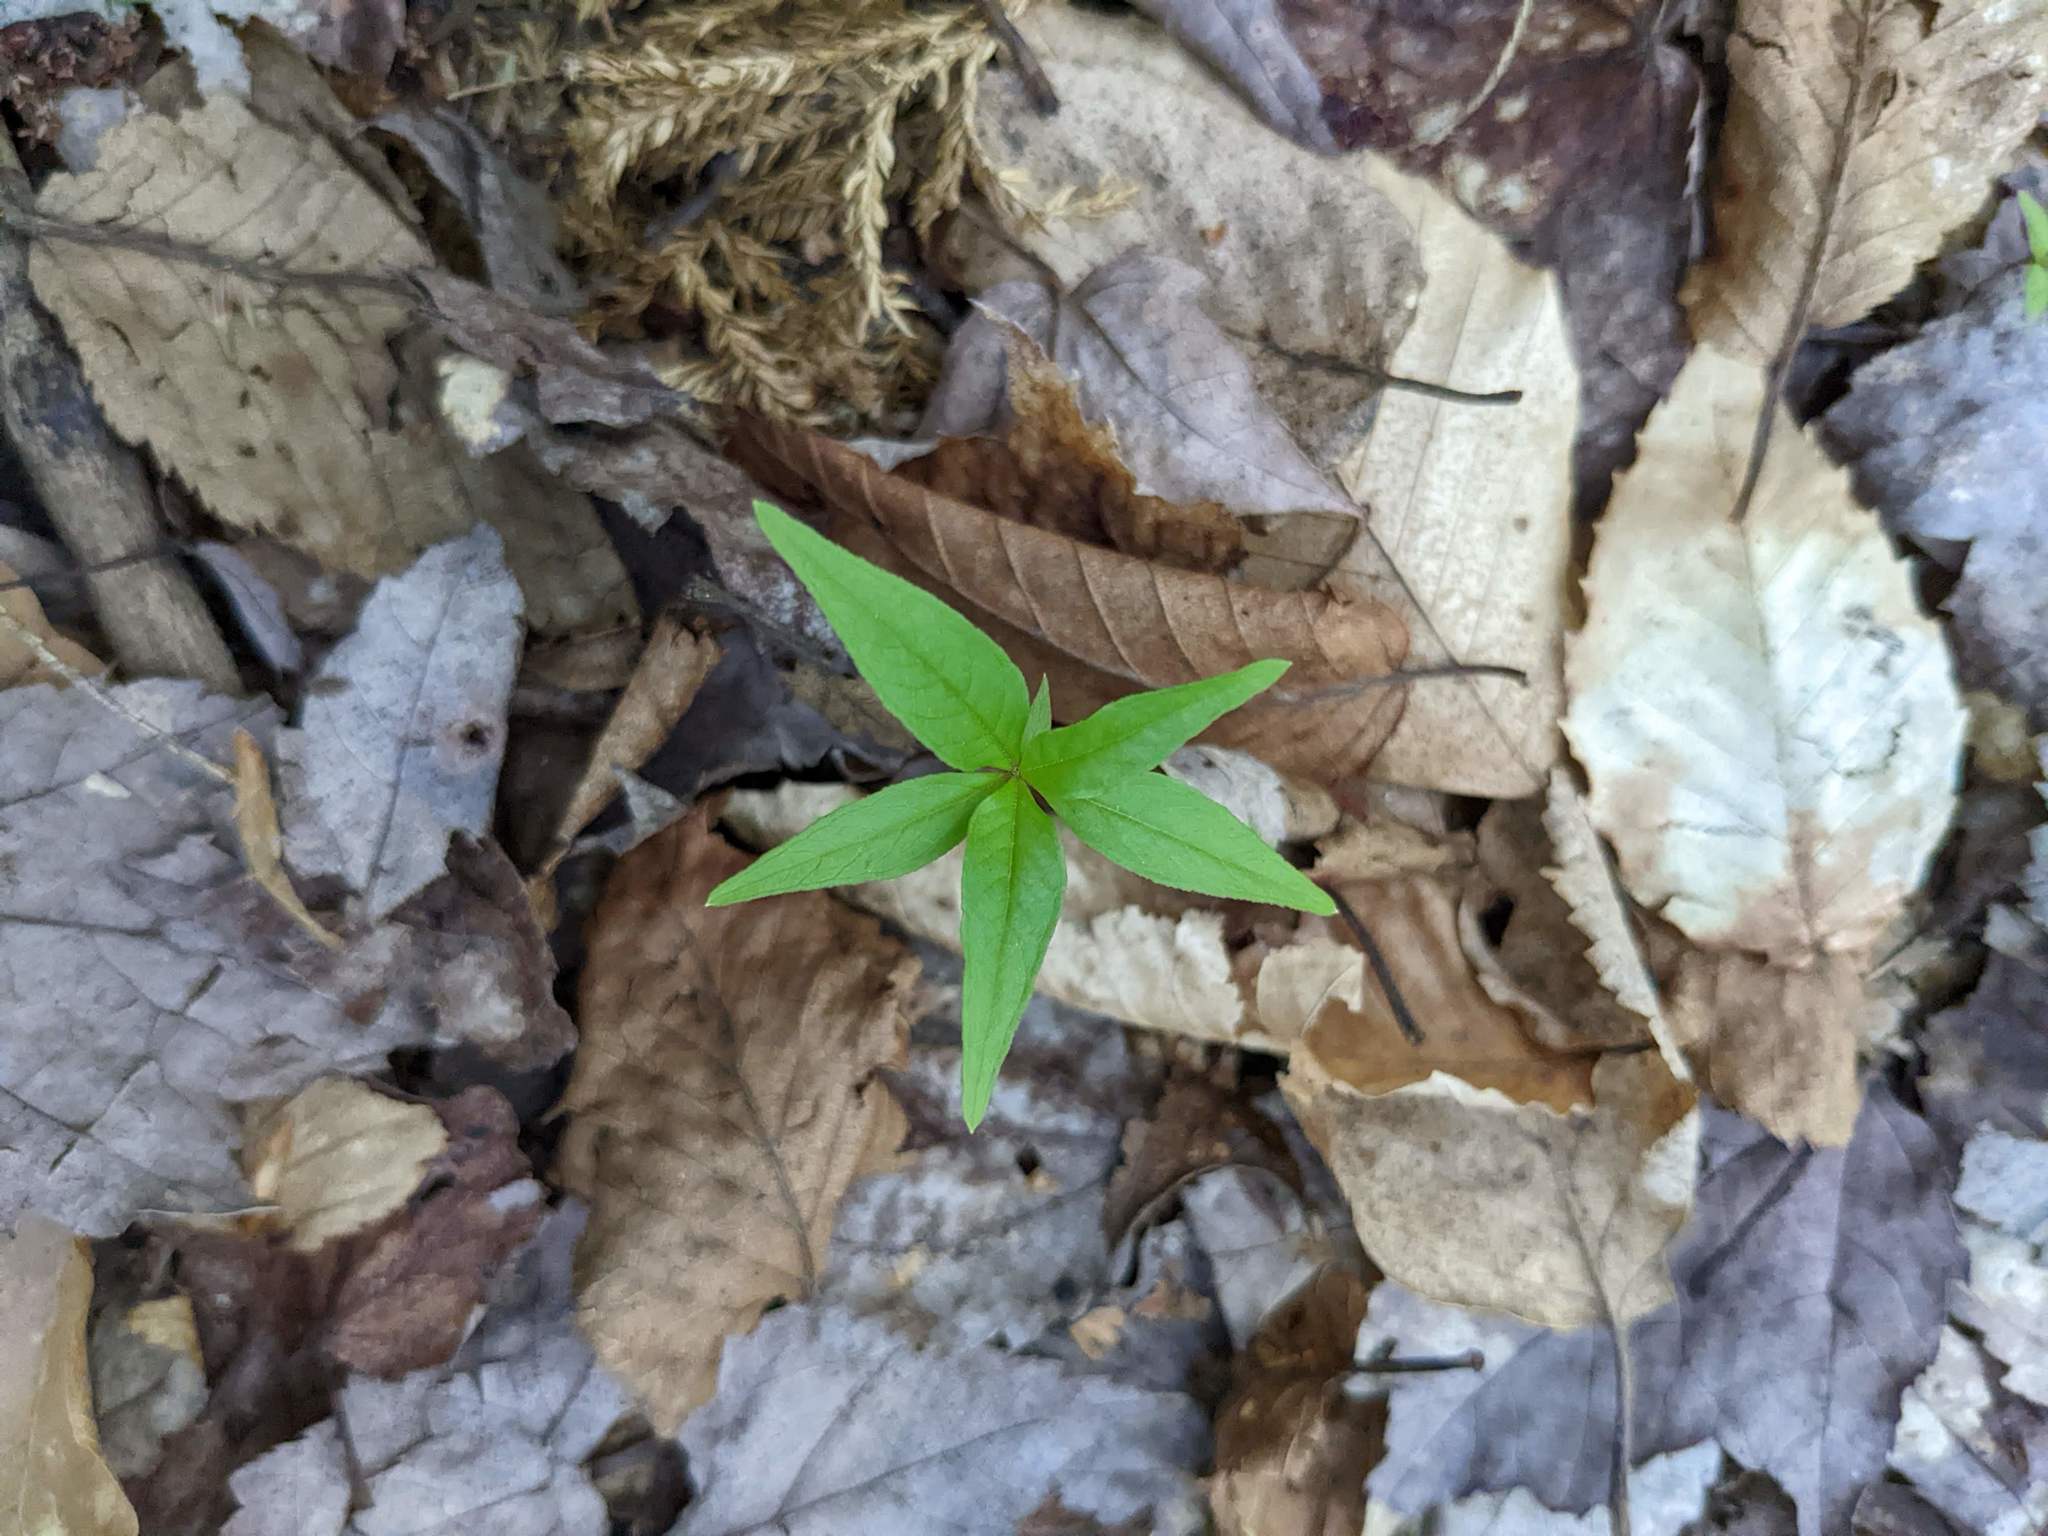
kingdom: Plantae
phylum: Tracheophyta
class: Magnoliopsida
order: Ericales
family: Primulaceae
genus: Lysimachia
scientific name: Lysimachia borealis
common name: American starflower
